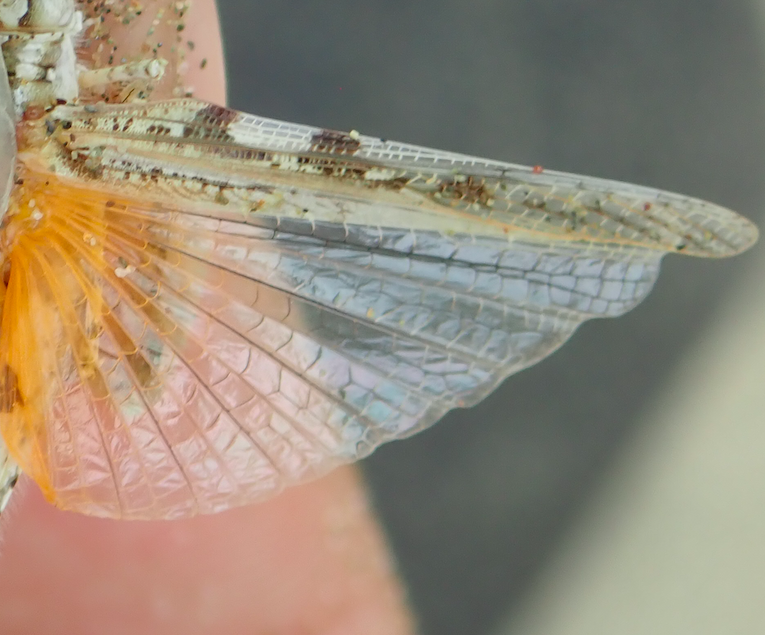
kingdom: Animalia
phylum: Arthropoda
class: Insecta
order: Orthoptera
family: Acrididae
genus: Acrotylus
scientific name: Acrotylus longipes
